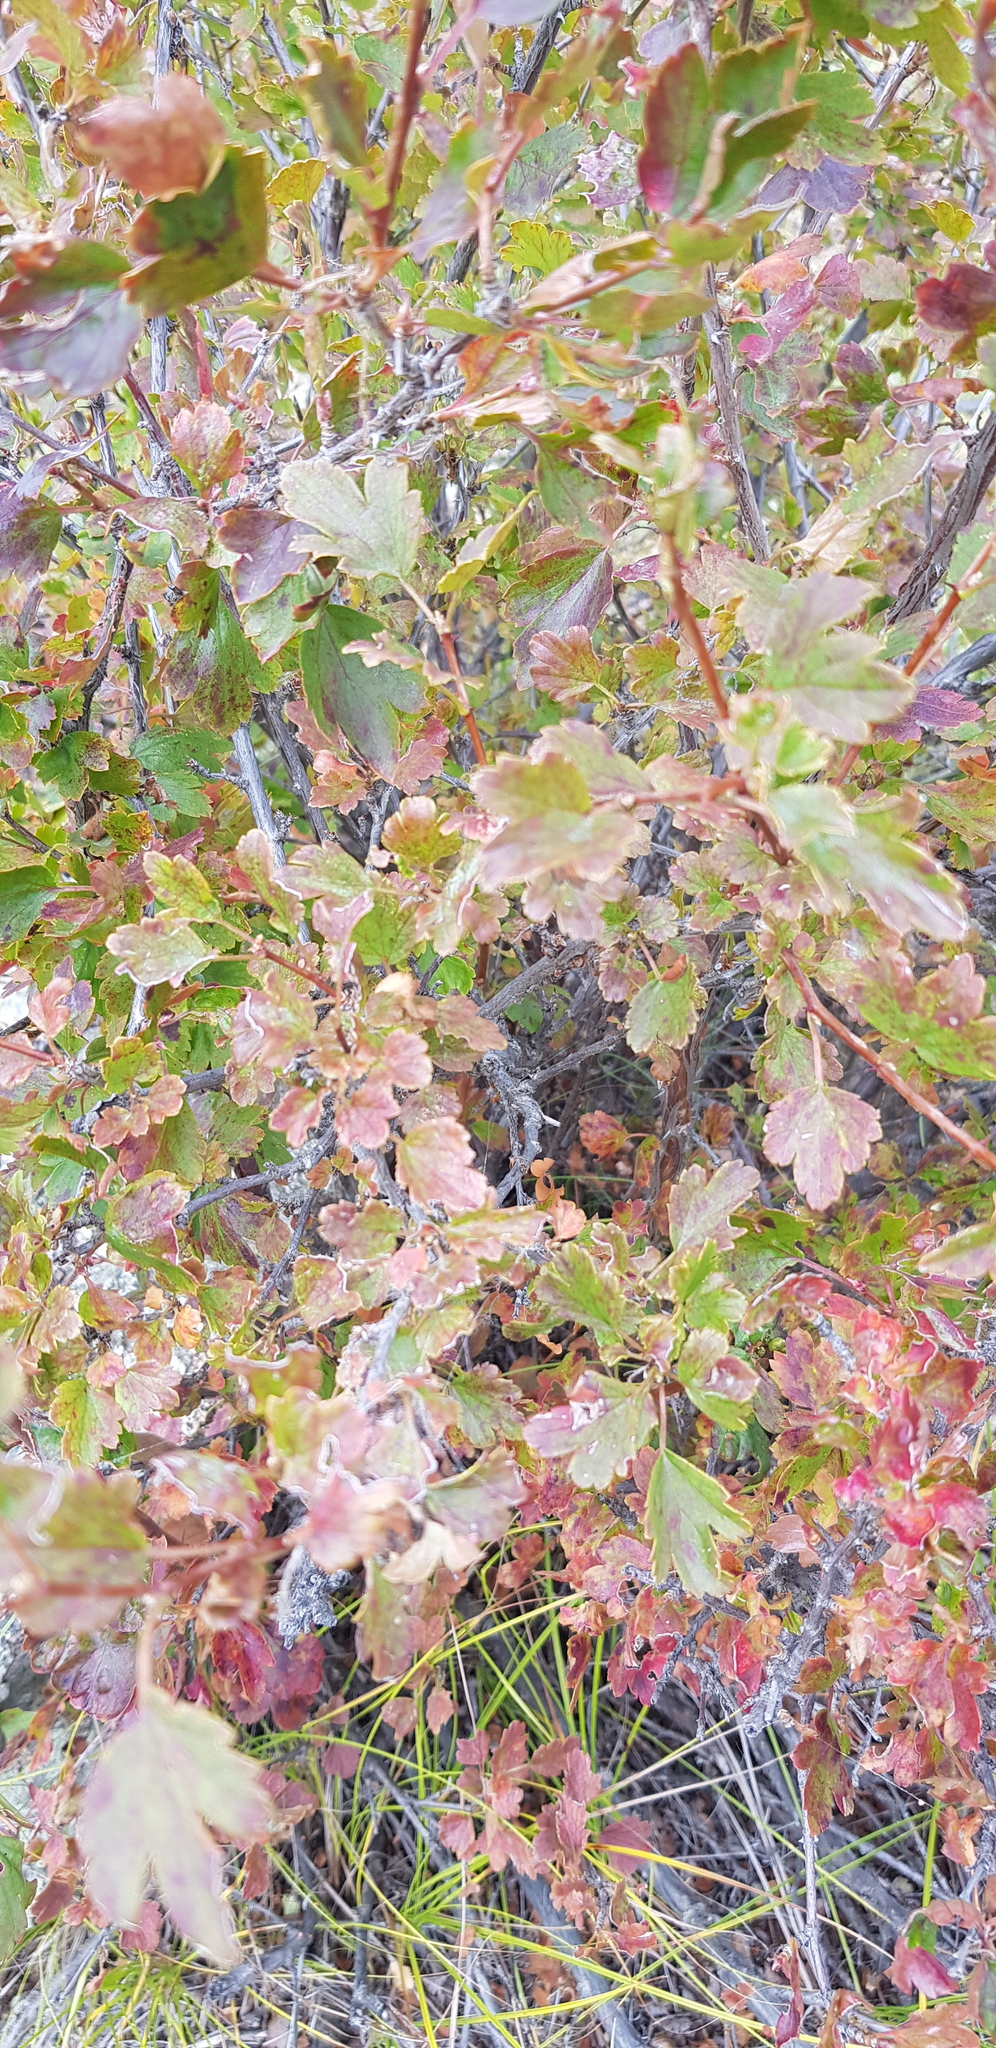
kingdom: Plantae
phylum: Tracheophyta
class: Magnoliopsida
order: Saxifragales
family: Grossulariaceae
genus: Ribes
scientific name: Ribes rubrum
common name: Red currant
